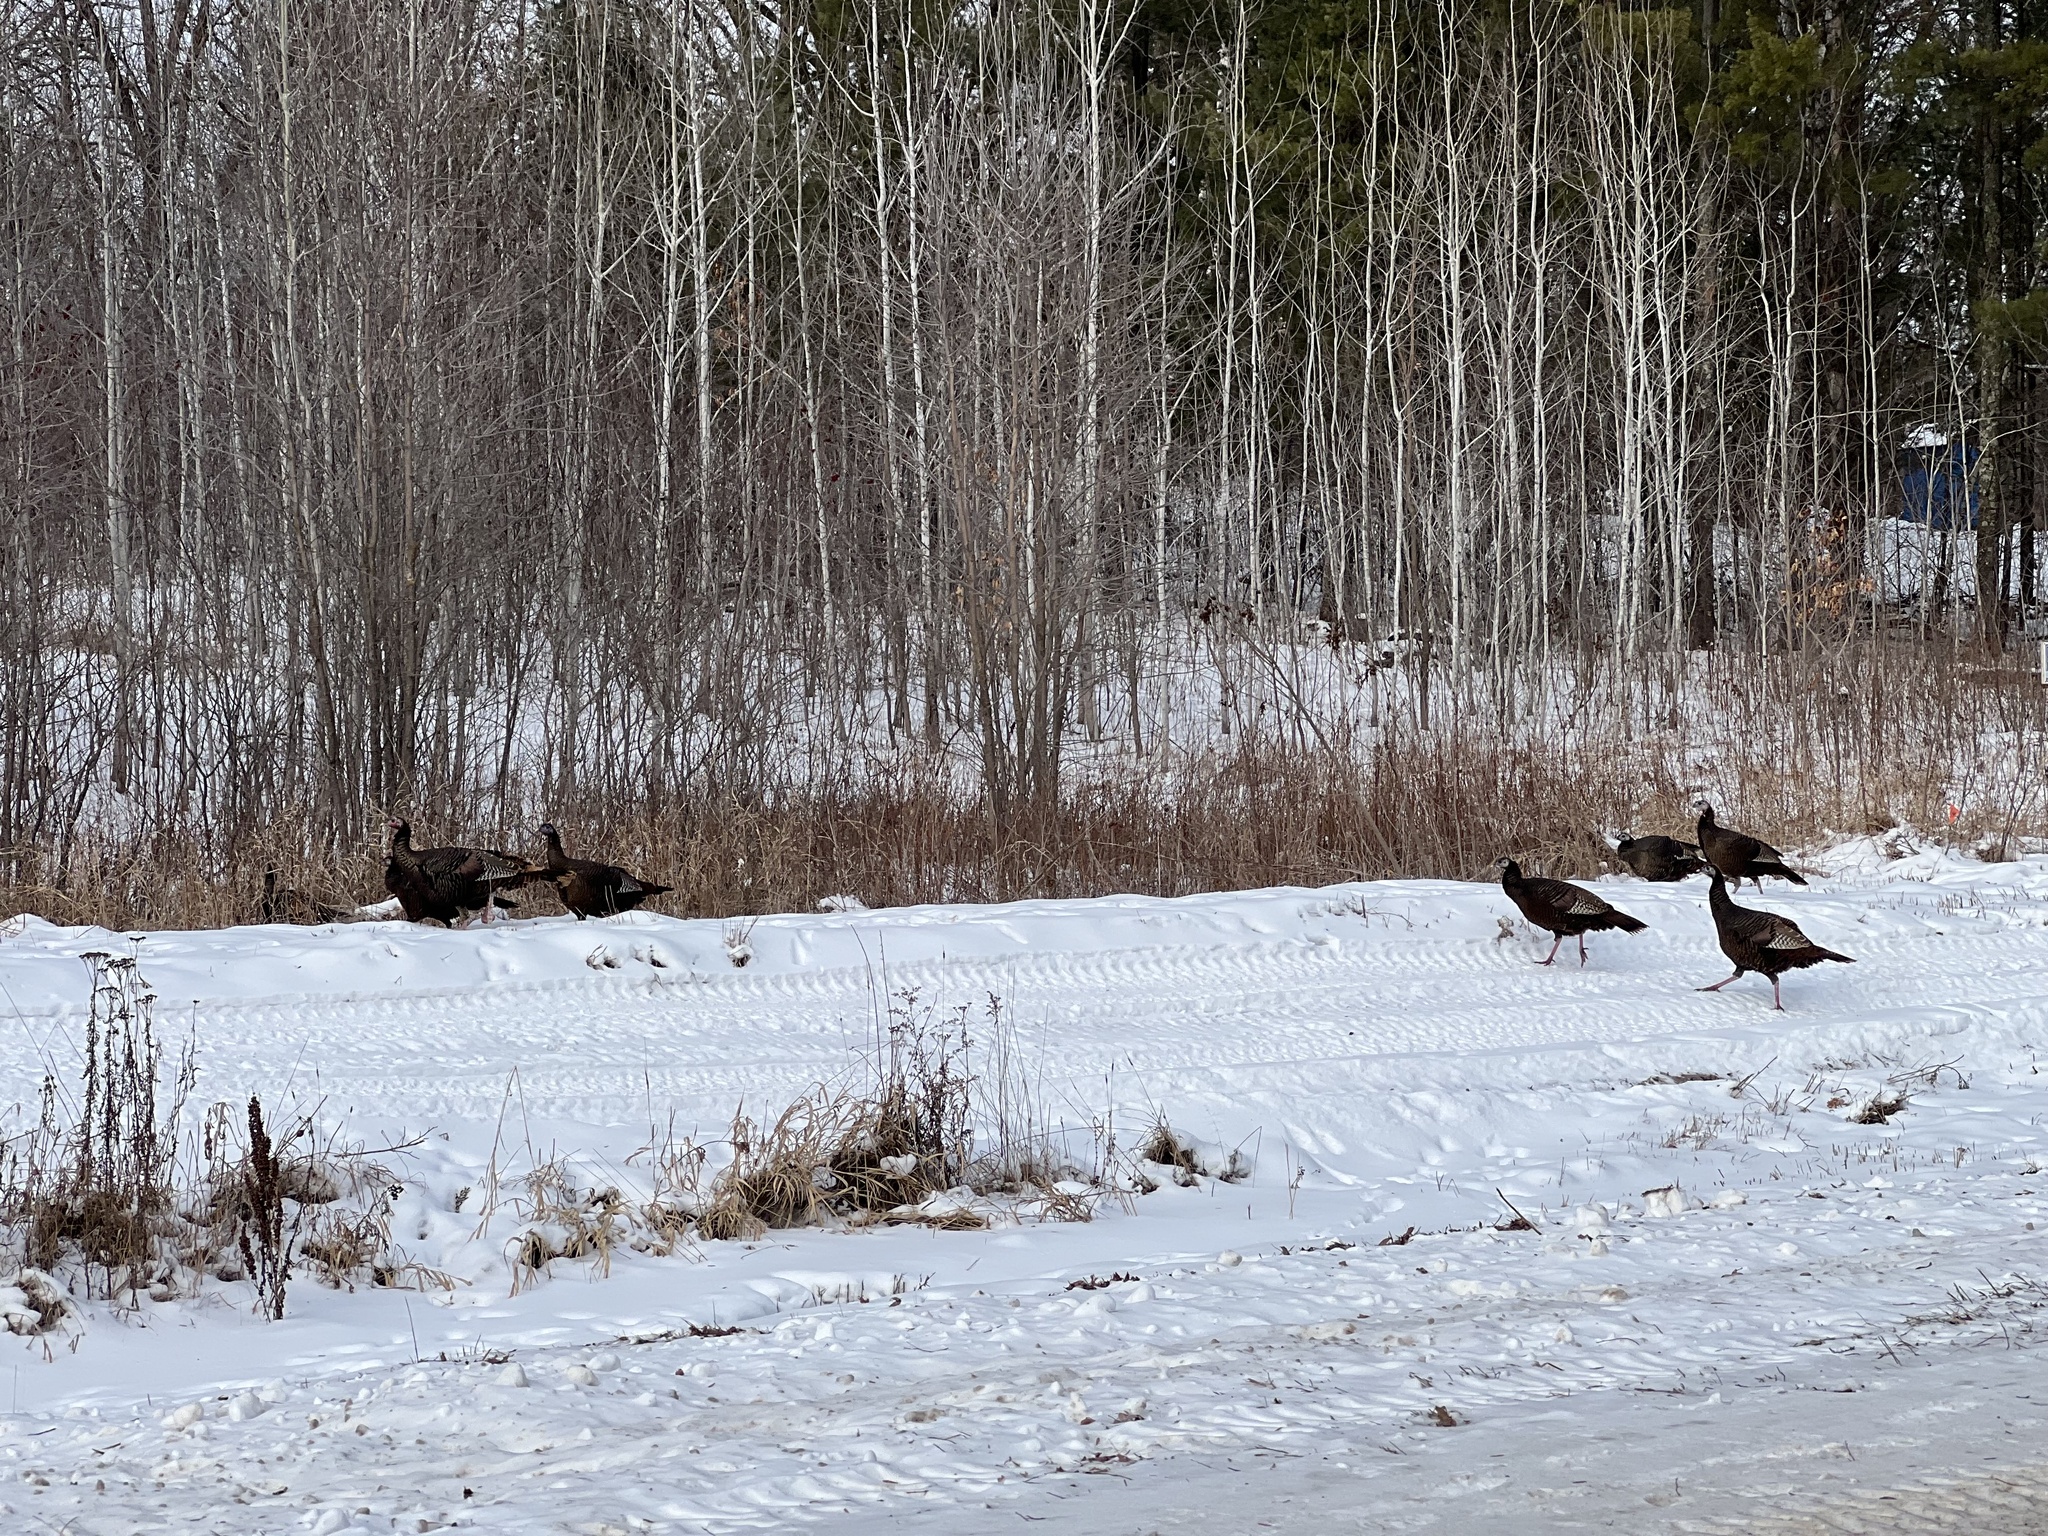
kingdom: Animalia
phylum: Chordata
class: Aves
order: Galliformes
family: Phasianidae
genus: Meleagris
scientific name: Meleagris gallopavo
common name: Wild turkey
